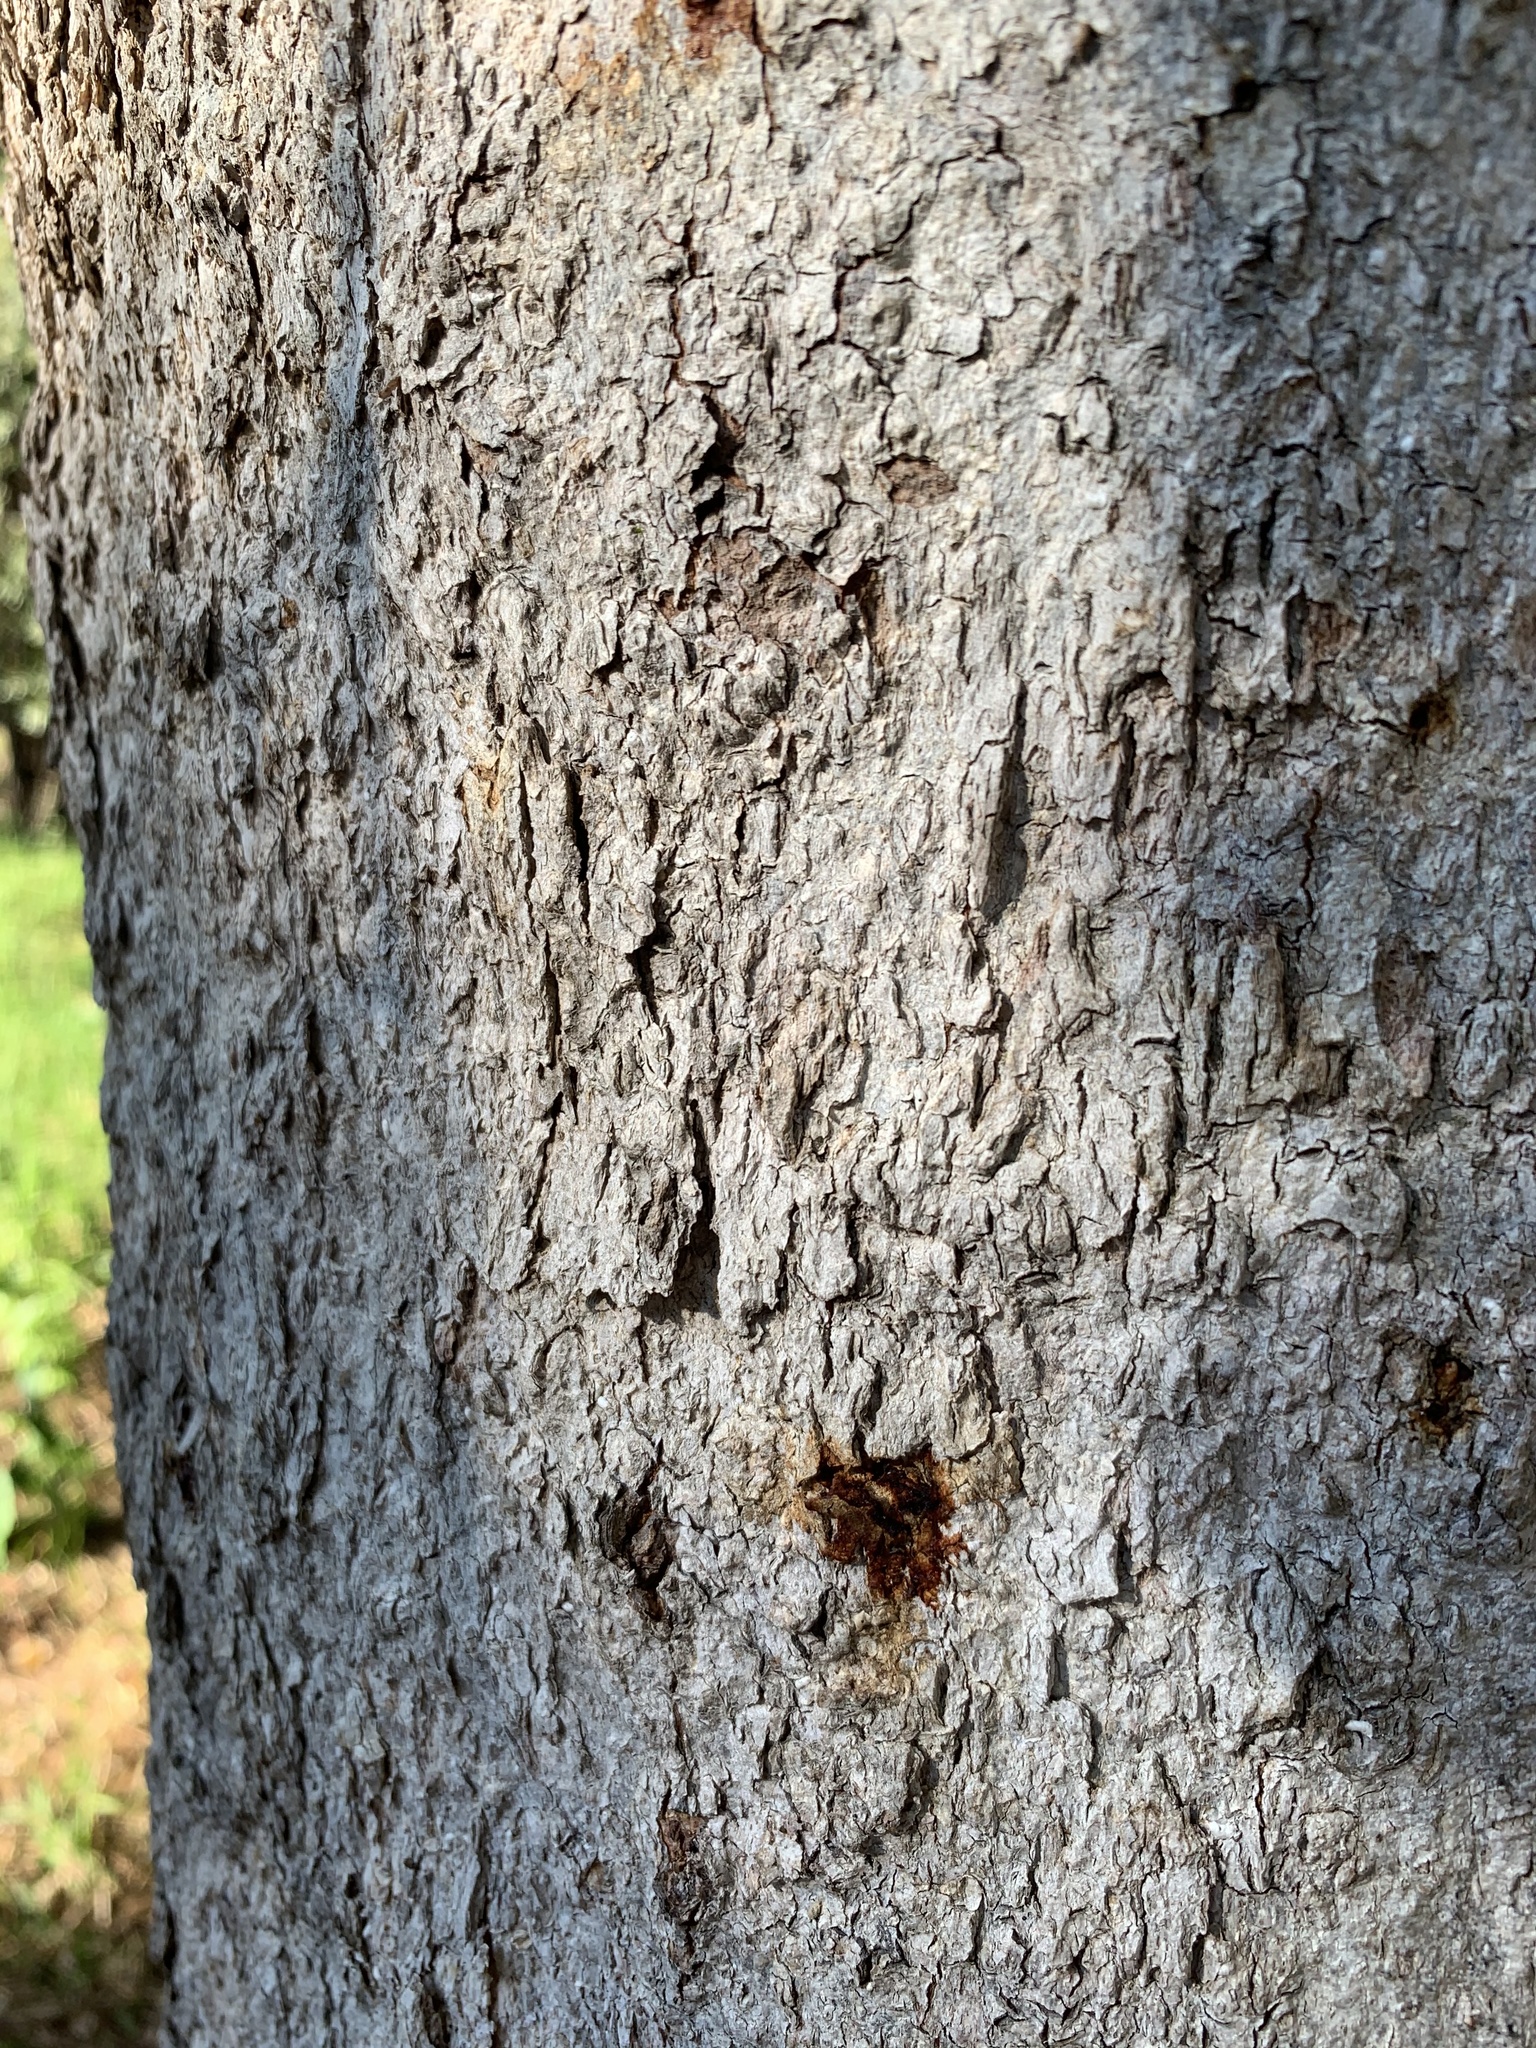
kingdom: Plantae
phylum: Tracheophyta
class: Magnoliopsida
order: Malpighiales
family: Achariaceae
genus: Kiggelaria
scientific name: Kiggelaria africana
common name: Wild peach
